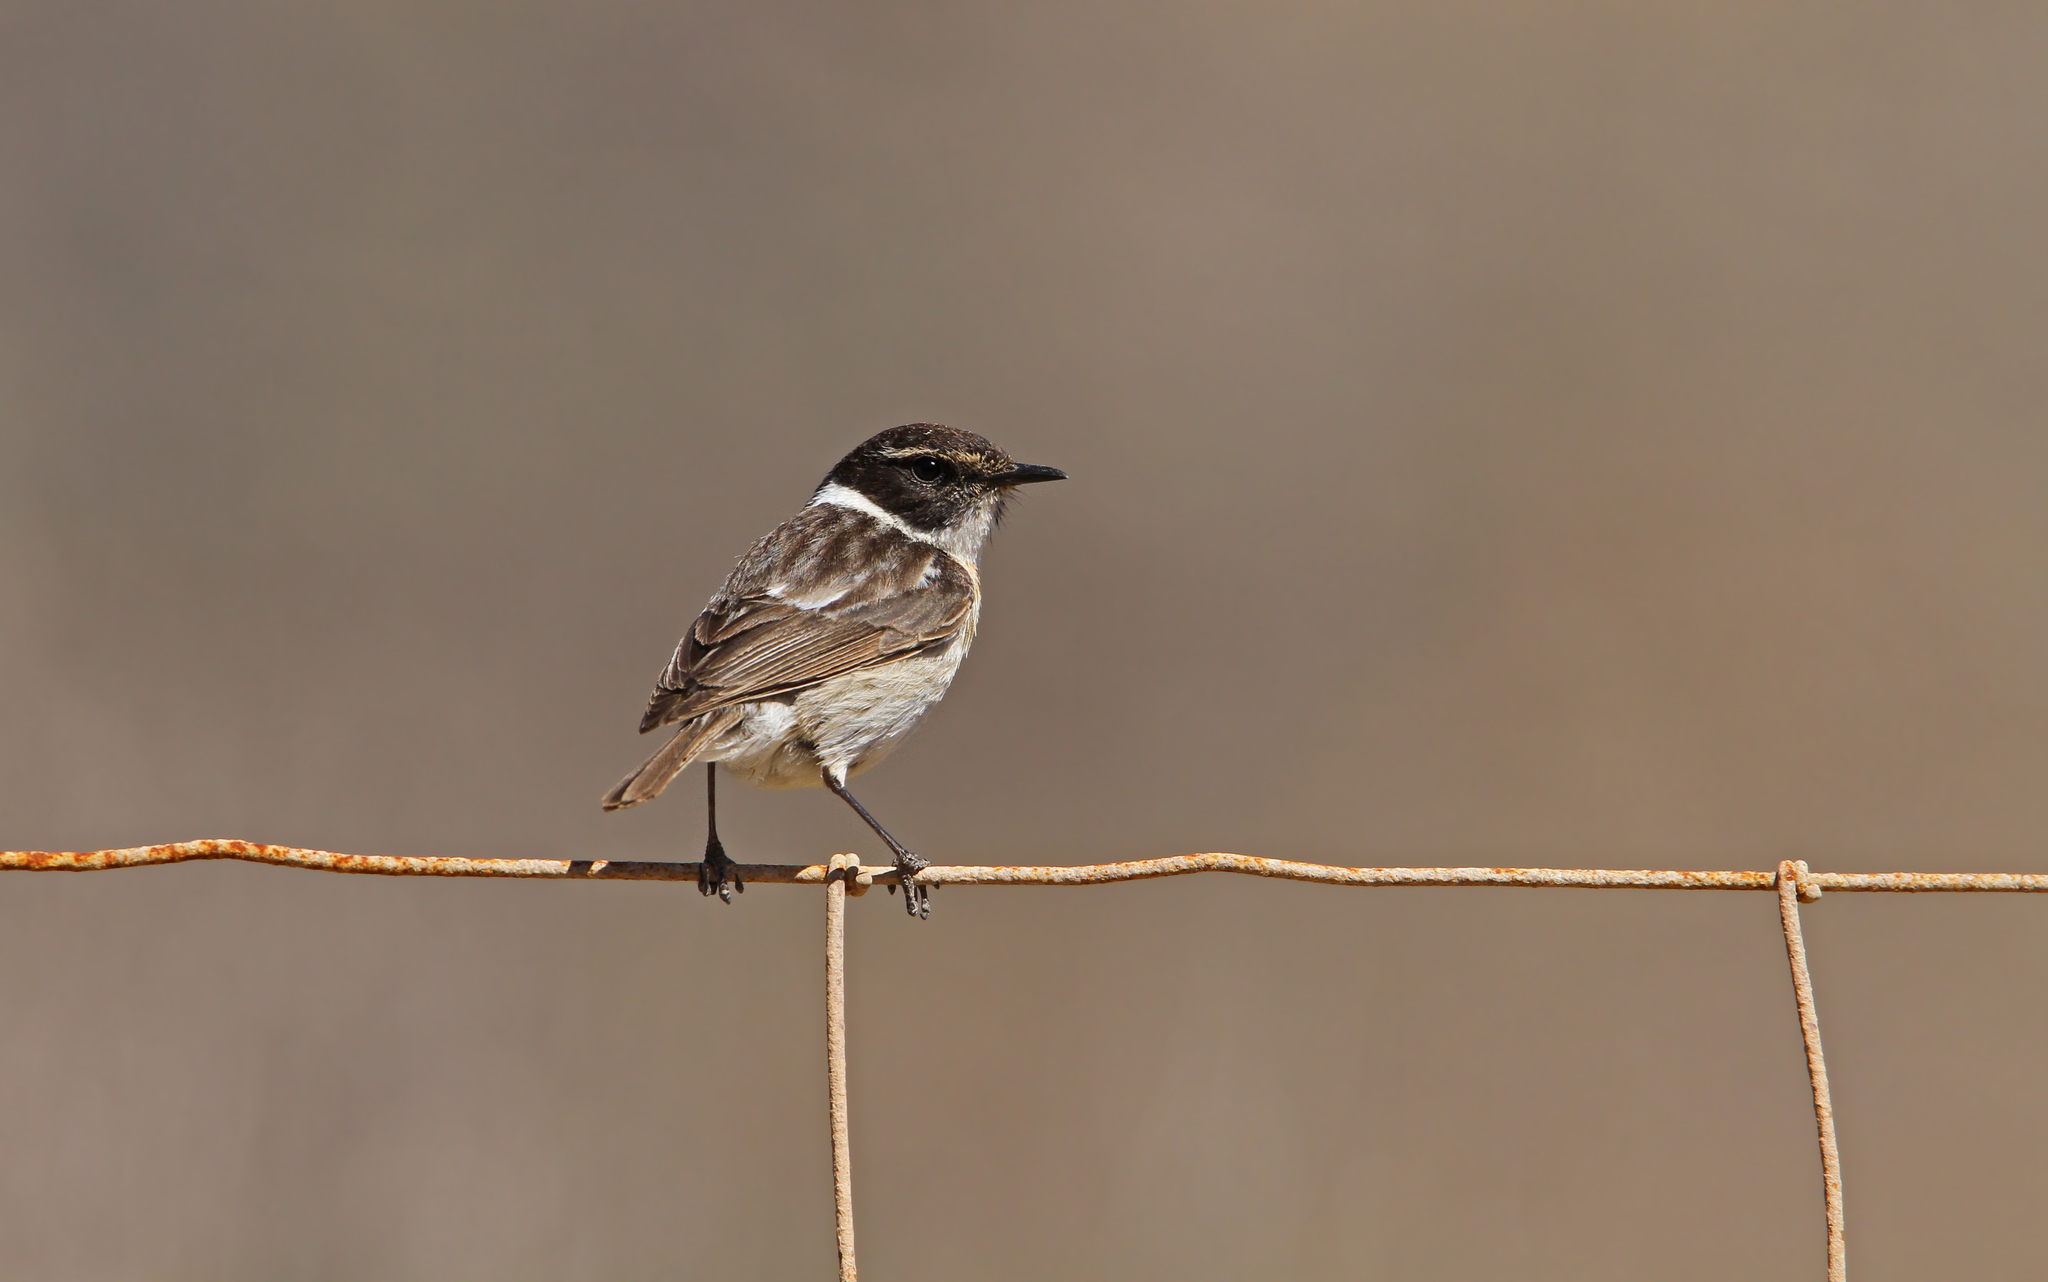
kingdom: Animalia
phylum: Chordata
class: Aves
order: Passeriformes
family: Muscicapidae
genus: Saxicola
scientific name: Saxicola dacotiae
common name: Canary islands stonechat
